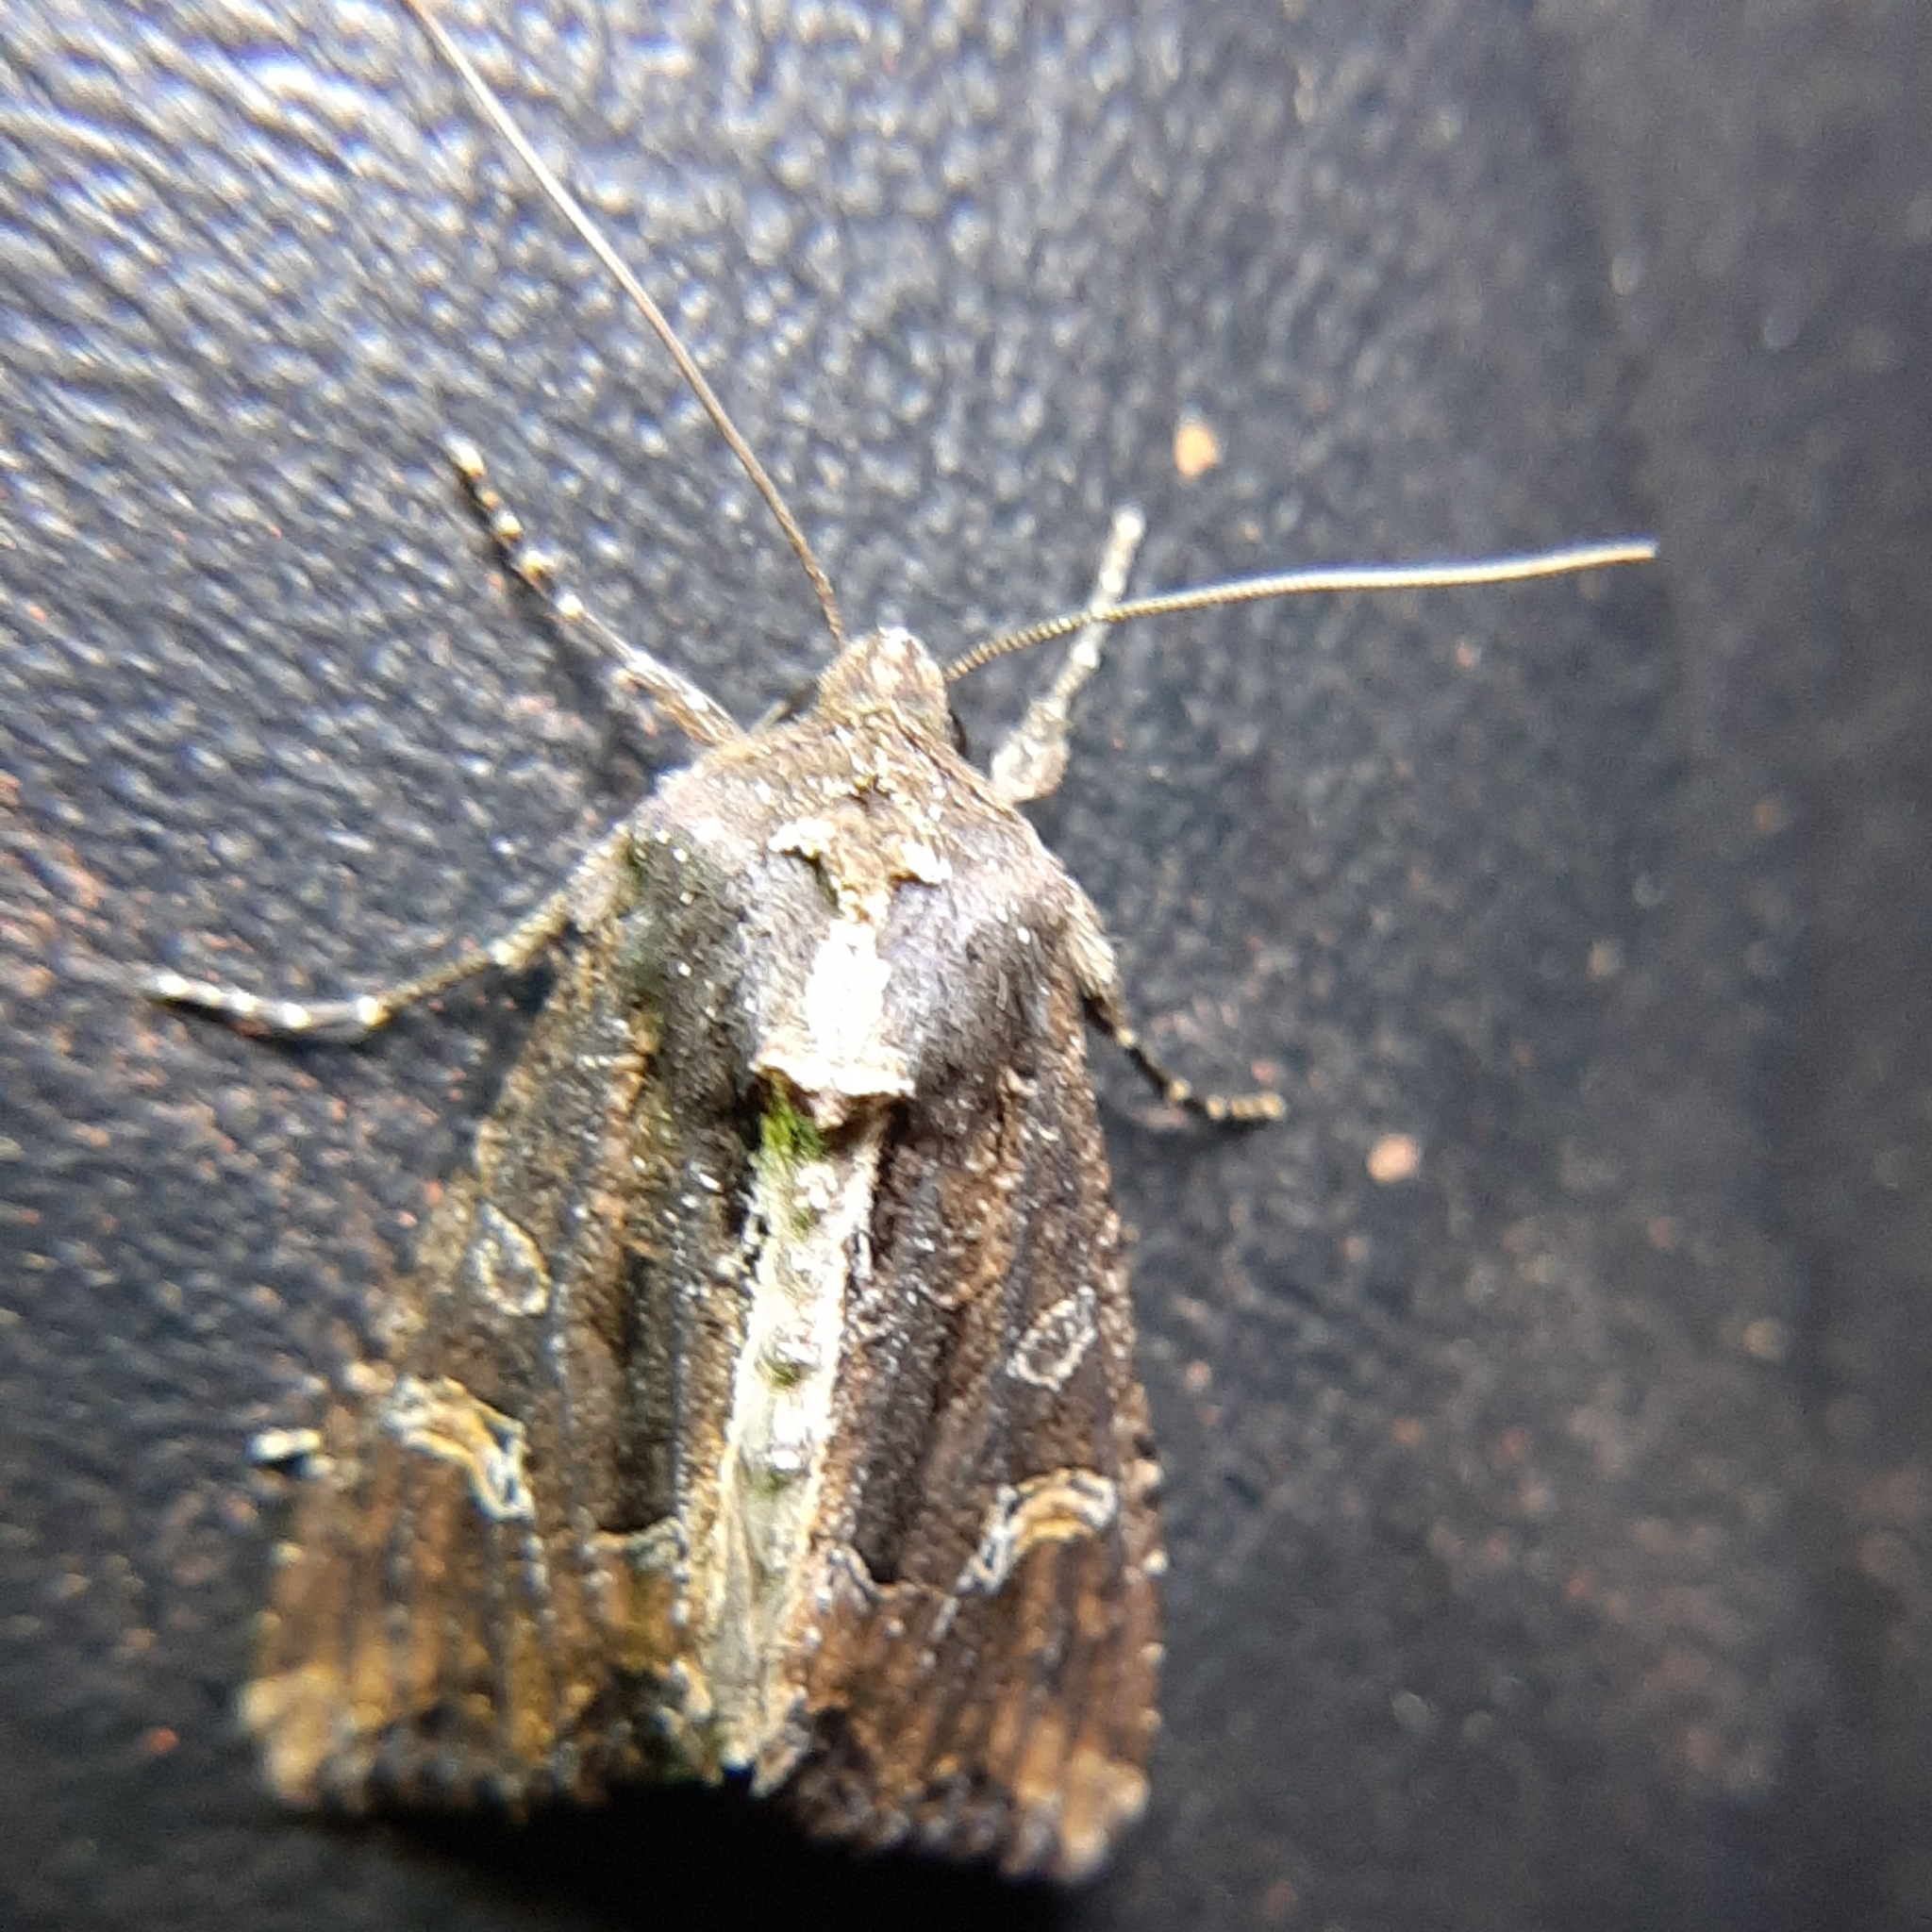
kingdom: Animalia
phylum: Arthropoda
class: Insecta
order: Lepidoptera
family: Noctuidae
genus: Helotropha
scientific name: Helotropha reniformis
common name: Kidney-spotted rustic moth
